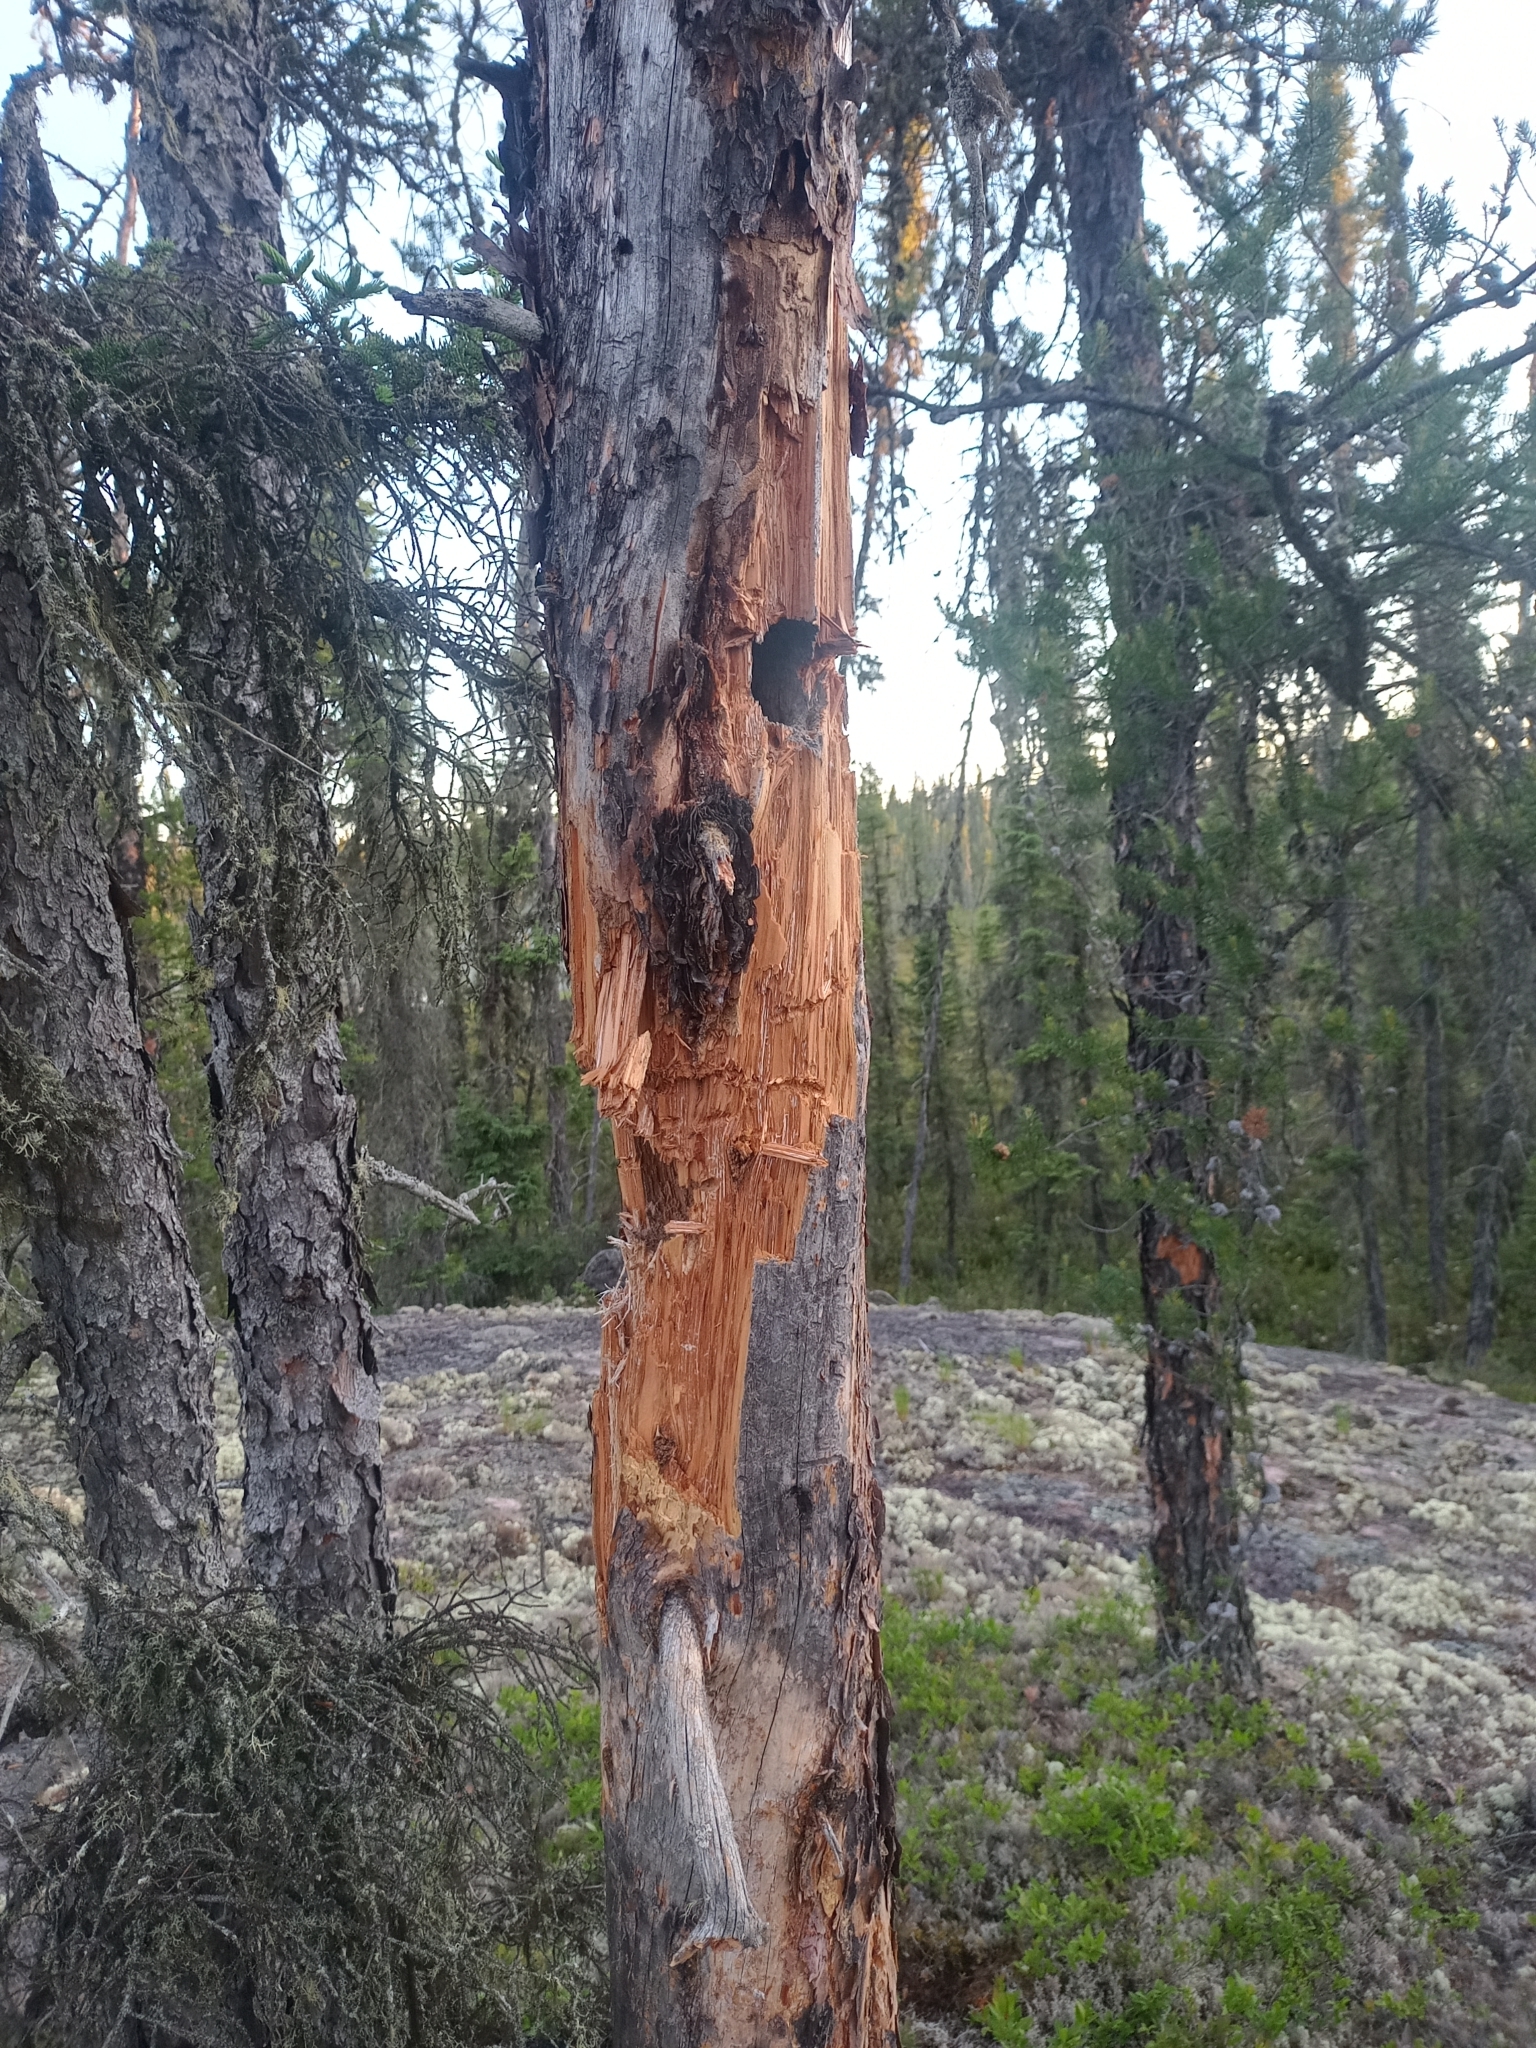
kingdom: Animalia
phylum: Chordata
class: Mammalia
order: Carnivora
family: Ursidae
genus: Ursus
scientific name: Ursus americanus
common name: American black bear
